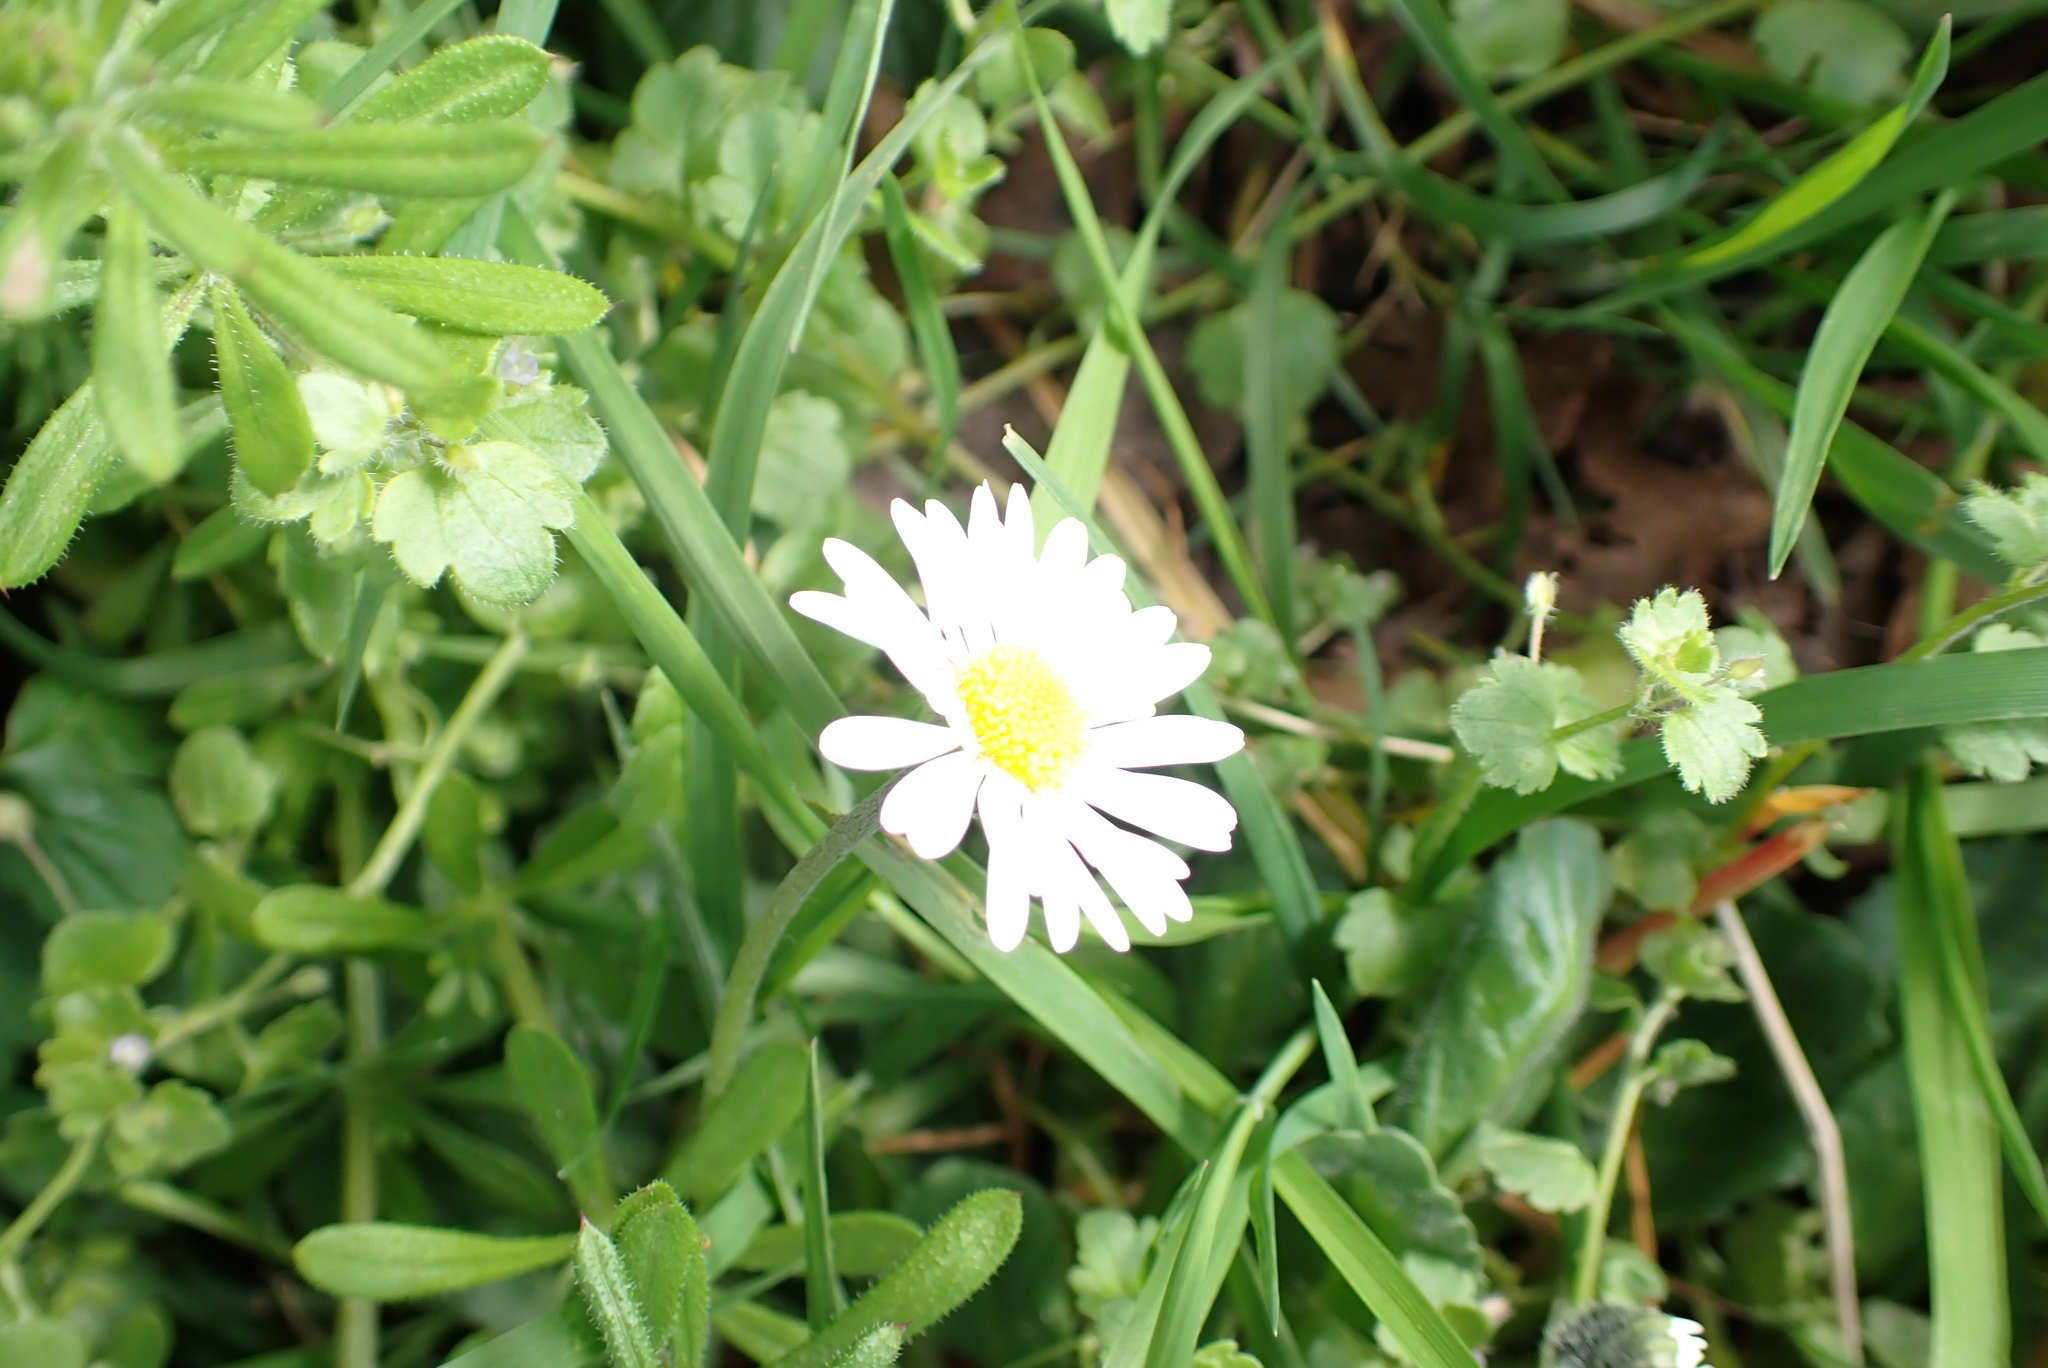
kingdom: Plantae
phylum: Tracheophyta
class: Magnoliopsida
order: Asterales
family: Asteraceae
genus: Bellis
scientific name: Bellis perennis
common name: Lawndaisy
